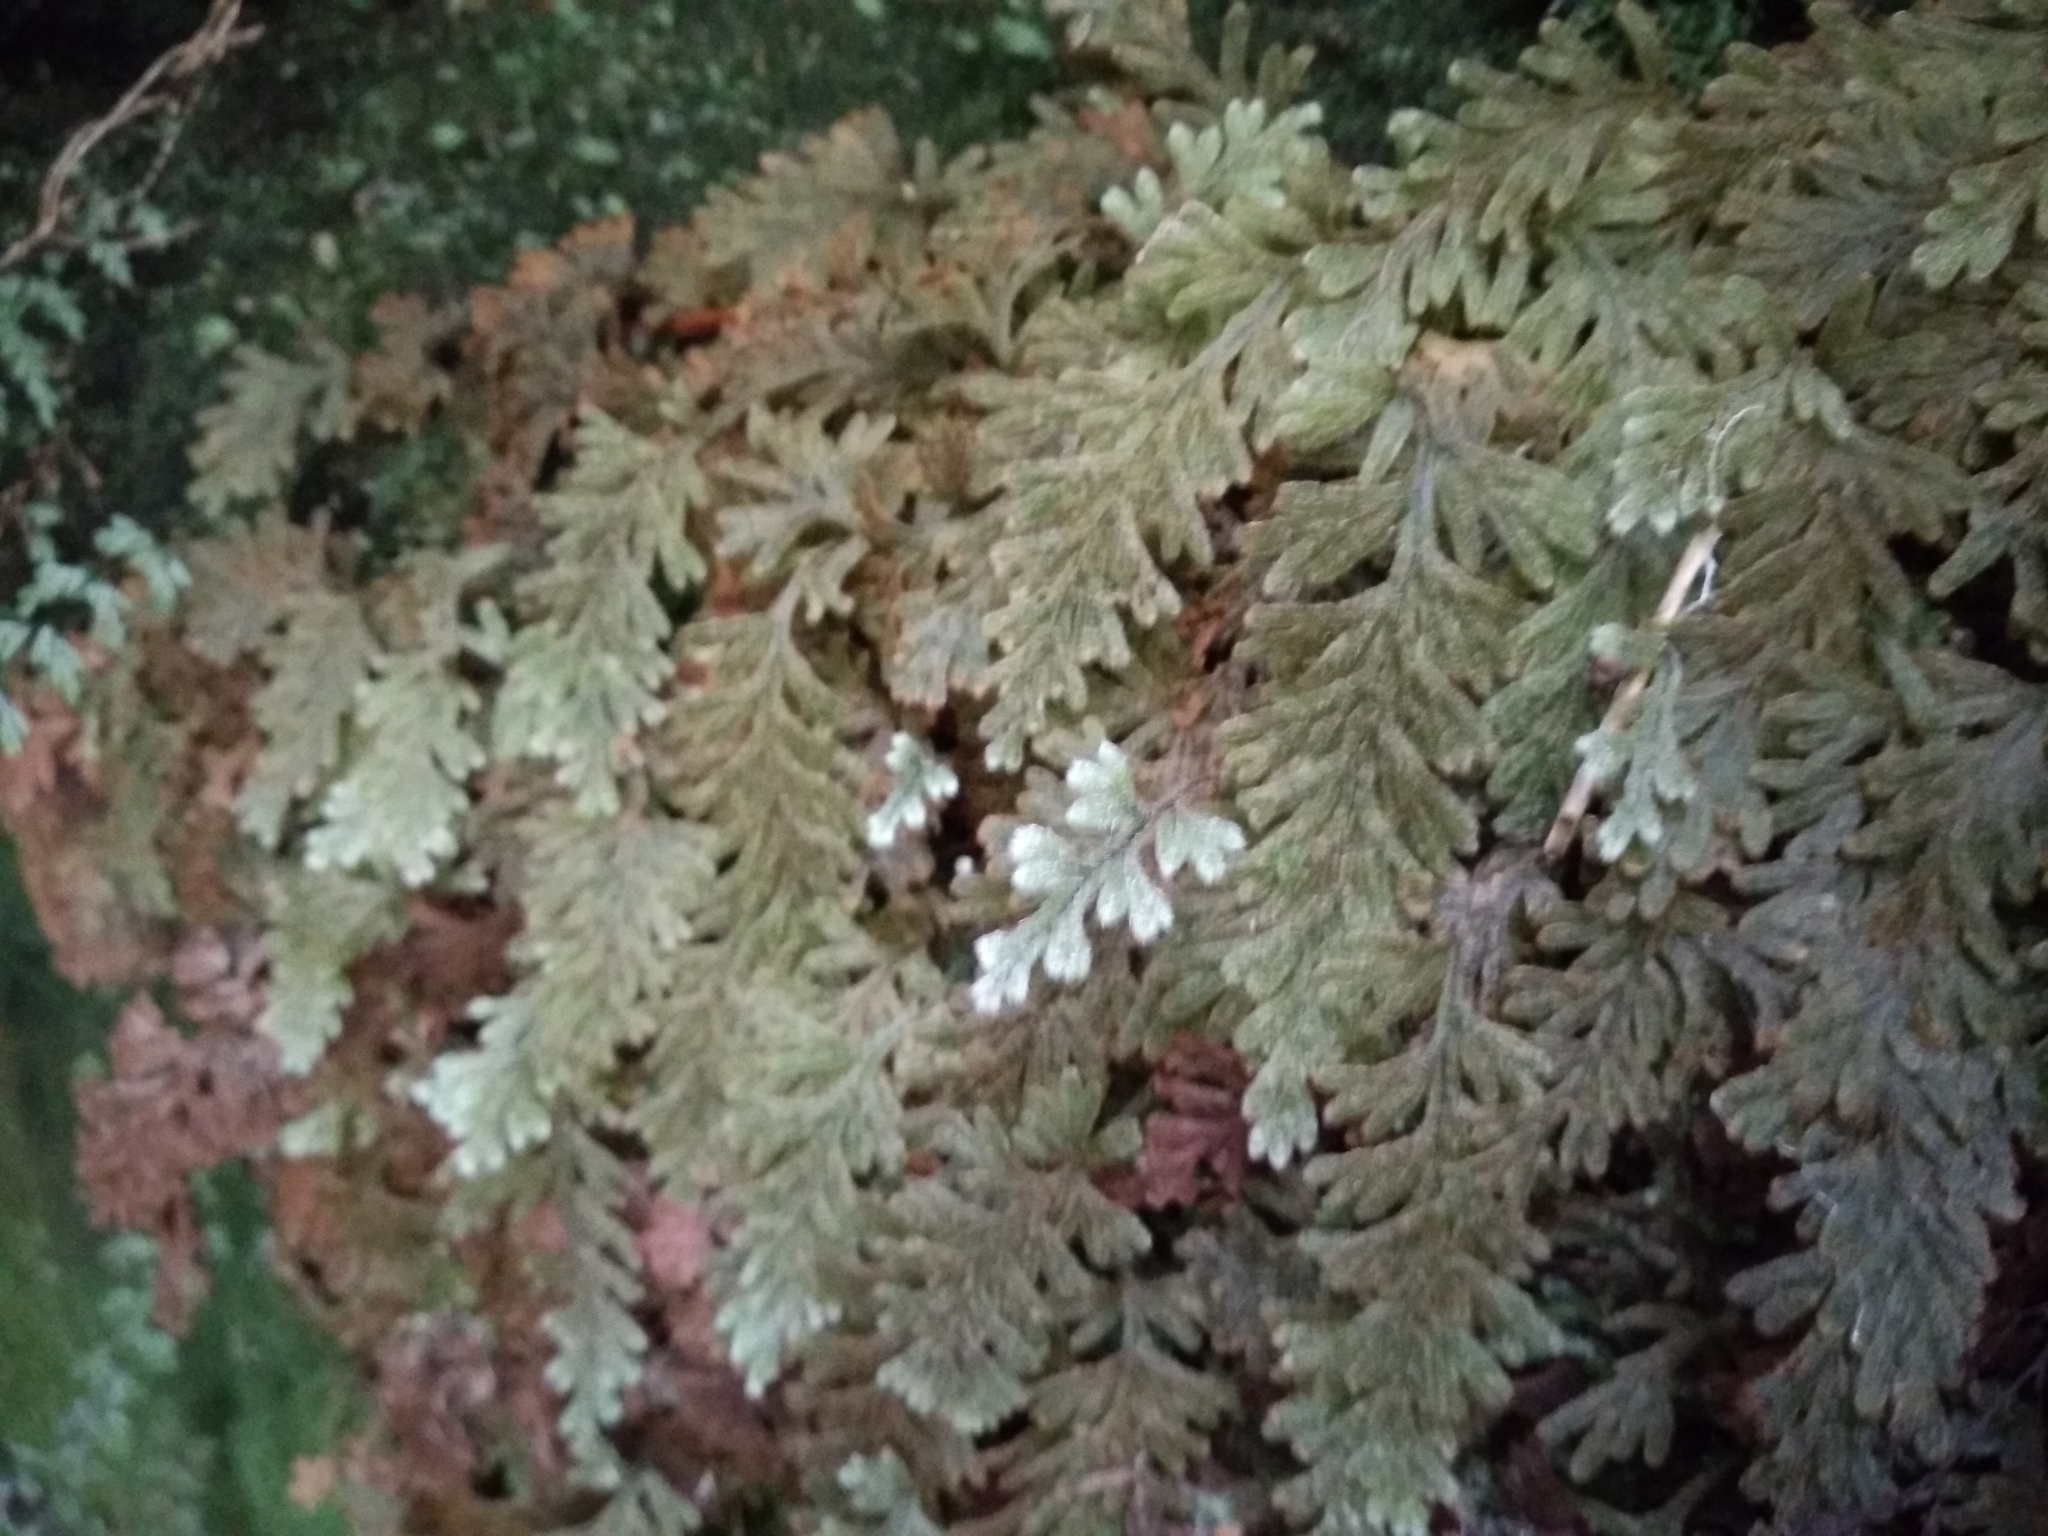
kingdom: Plantae
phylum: Tracheophyta
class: Polypodiopsida
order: Hymenophyllales
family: Hymenophyllaceae
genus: Hymenophyllum
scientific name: Hymenophyllum aeruginosum
